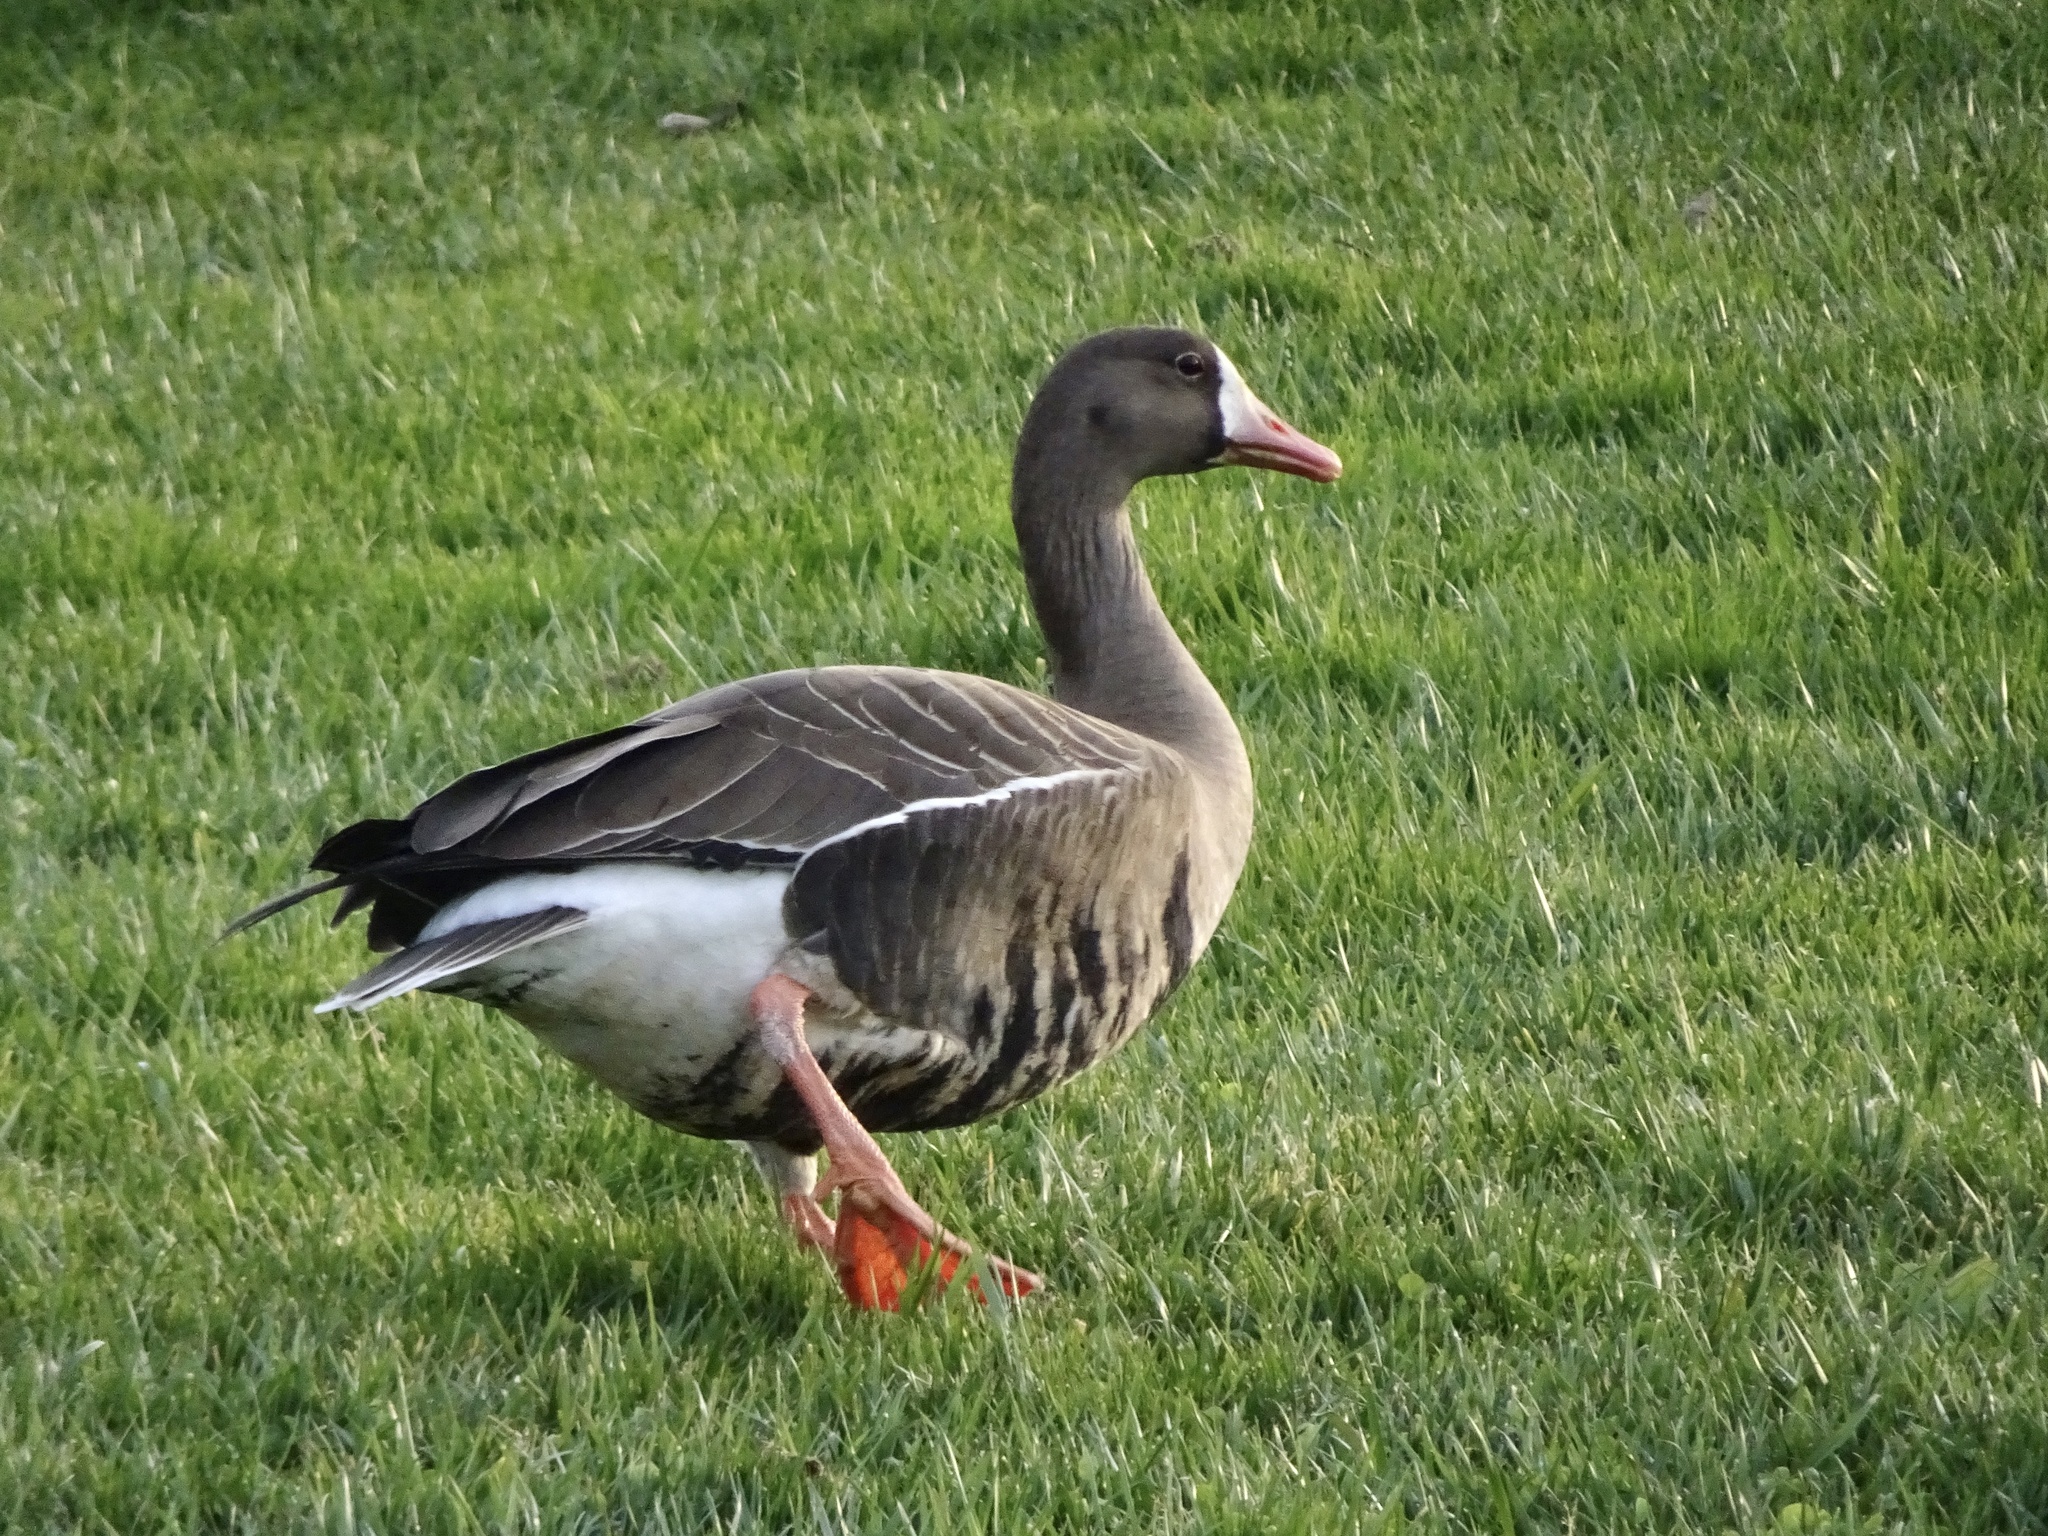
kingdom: Animalia
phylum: Chordata
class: Aves
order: Anseriformes
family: Anatidae
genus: Anser
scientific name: Anser albifrons
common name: Greater white-fronted goose
